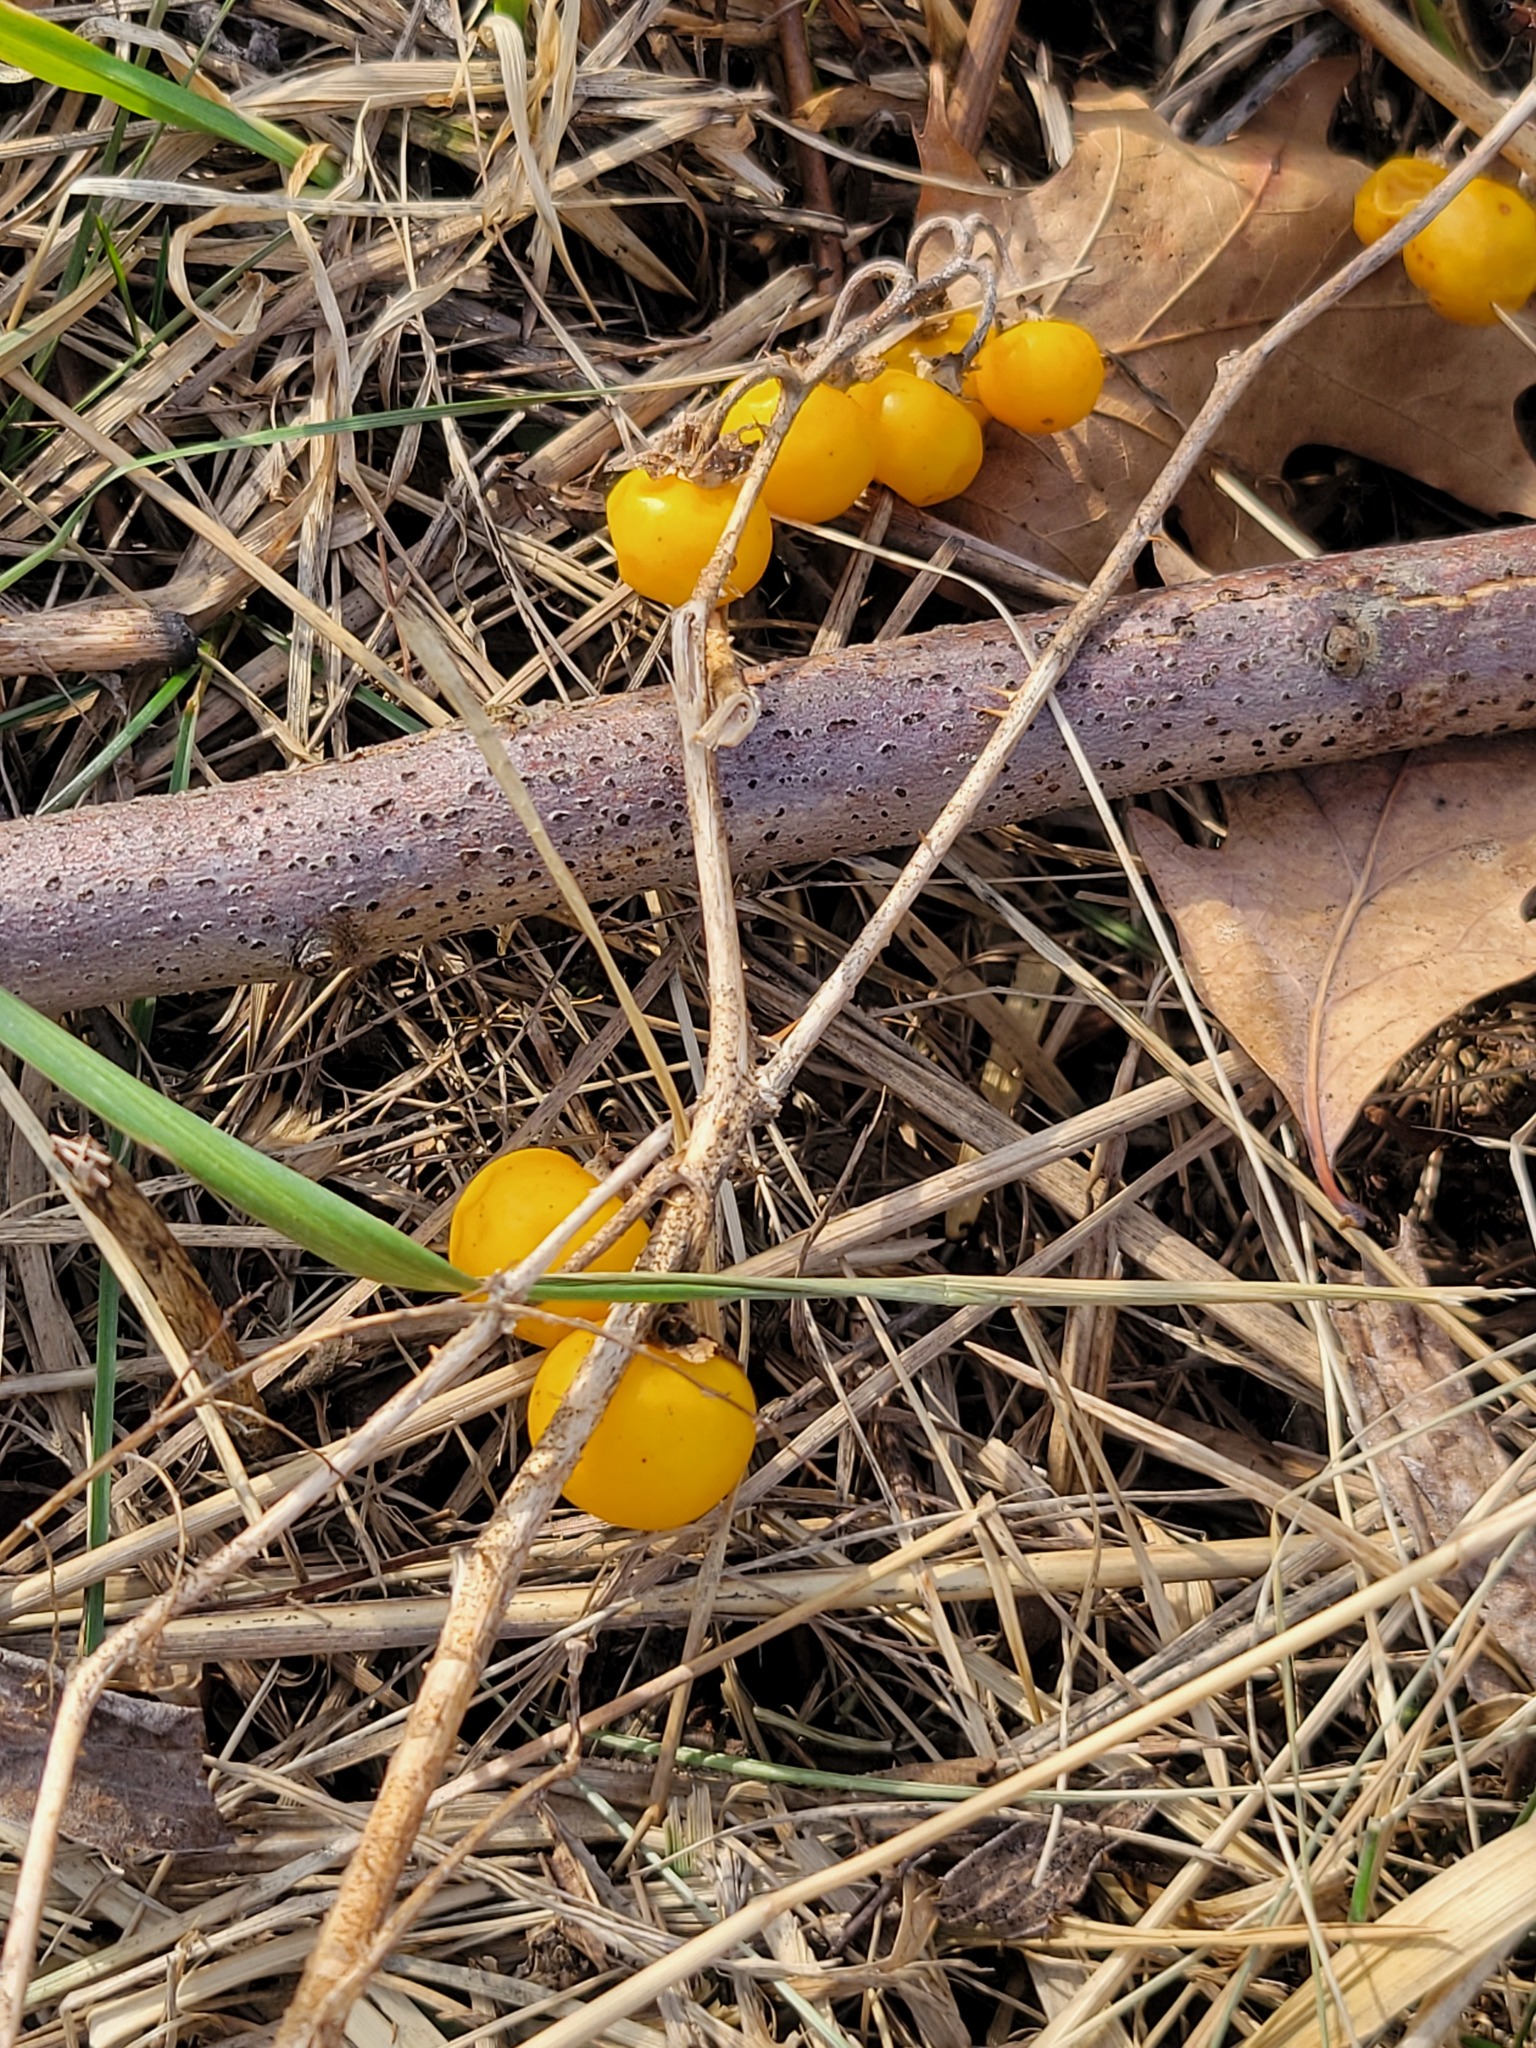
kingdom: Plantae
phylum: Tracheophyta
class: Magnoliopsida
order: Solanales
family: Solanaceae
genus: Solanum
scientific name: Solanum carolinense
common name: Horse-nettle
